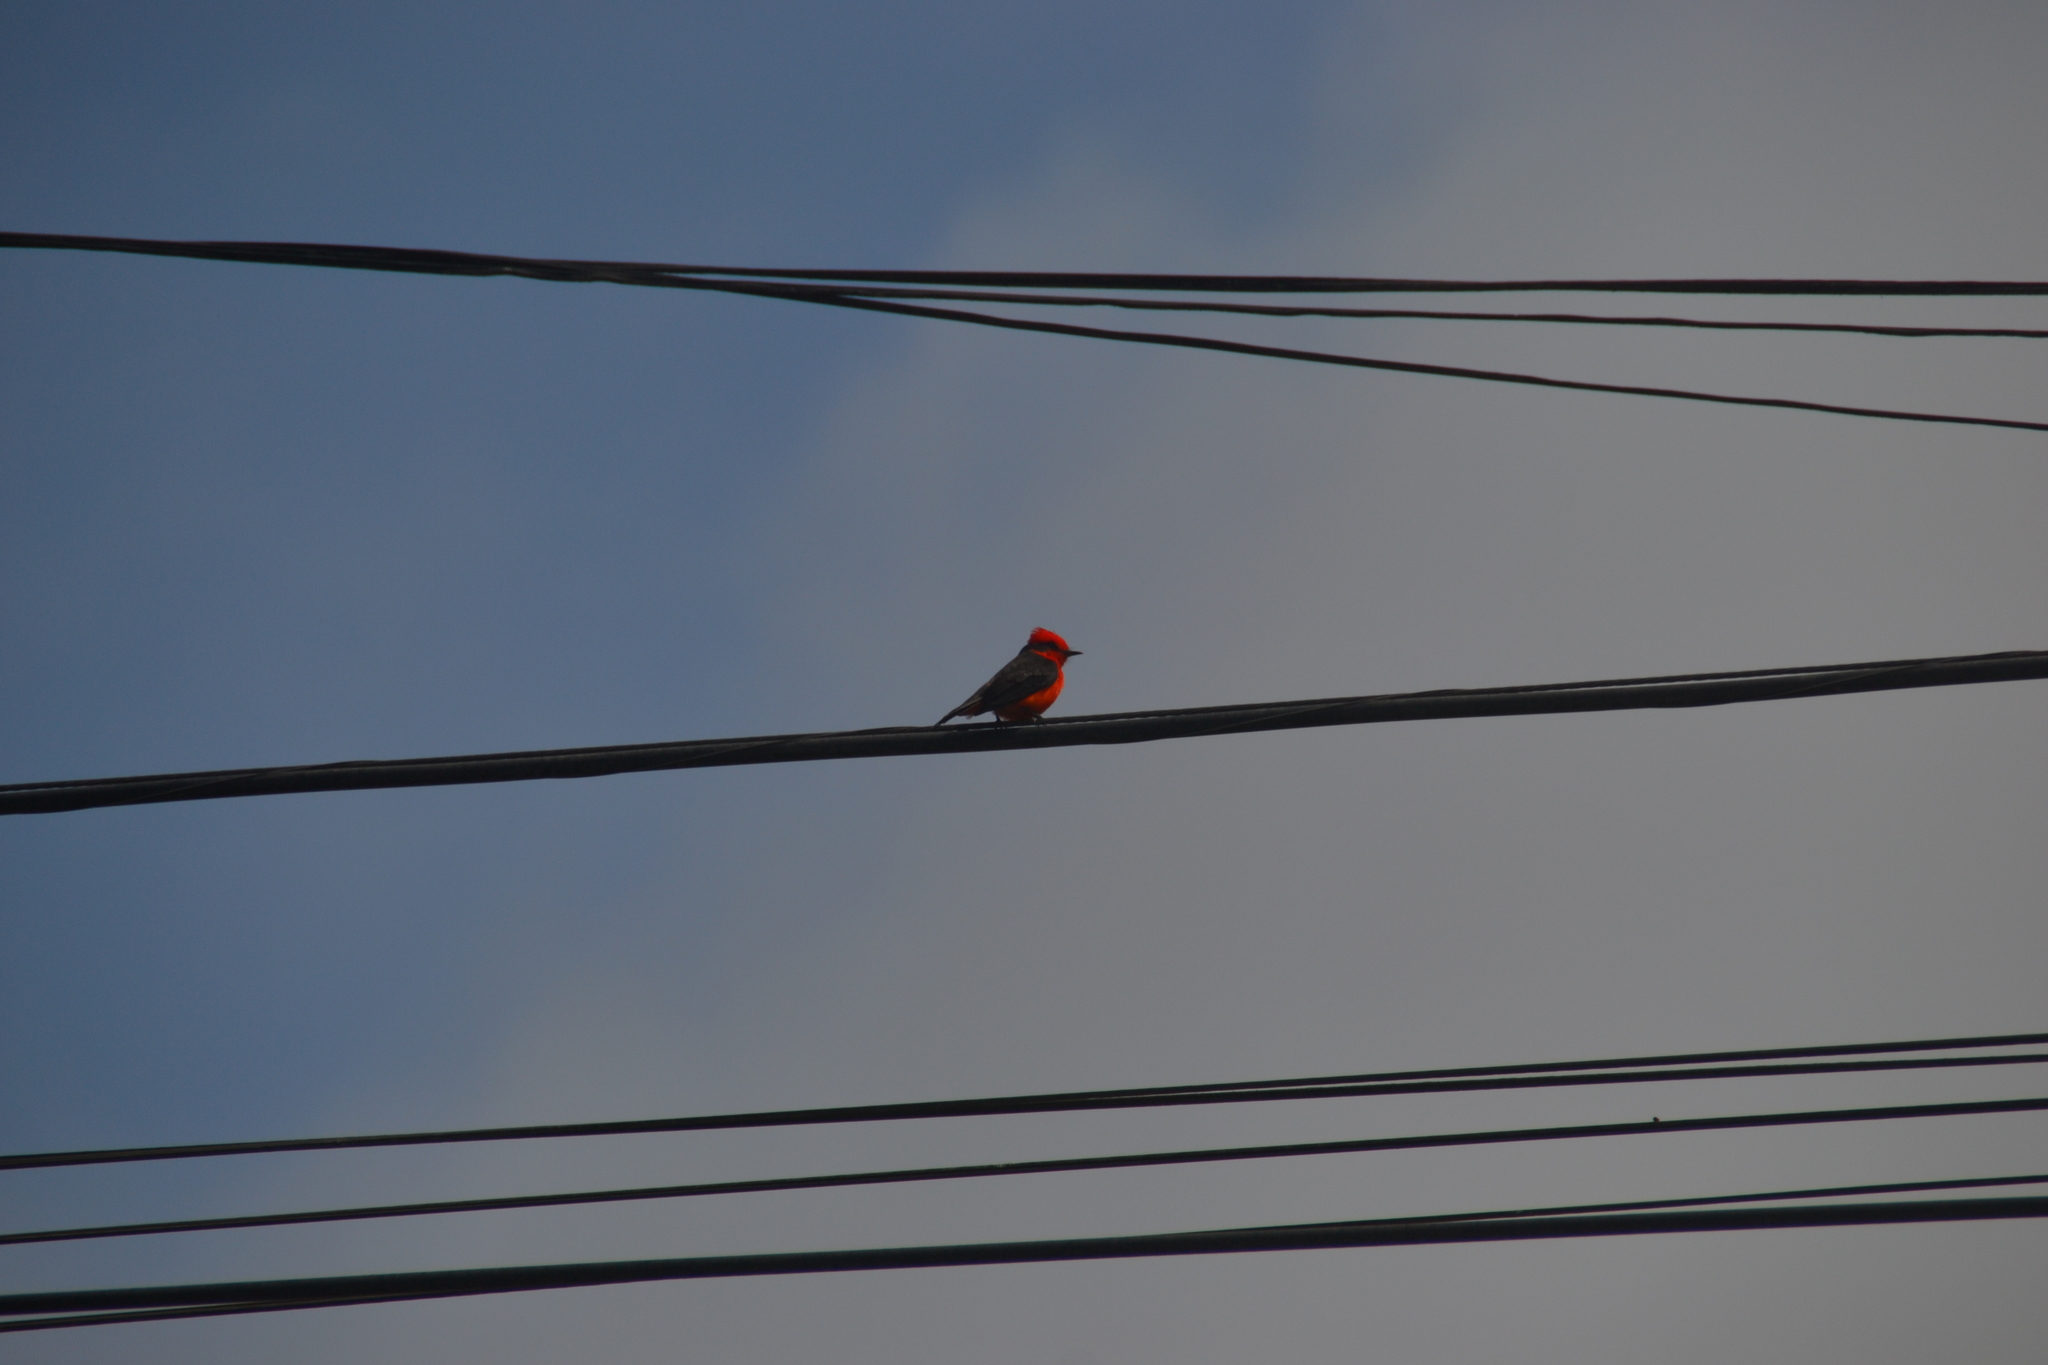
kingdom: Animalia
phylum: Chordata
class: Aves
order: Passeriformes
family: Tyrannidae
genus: Pyrocephalus
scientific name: Pyrocephalus rubinus
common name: Vermilion flycatcher
